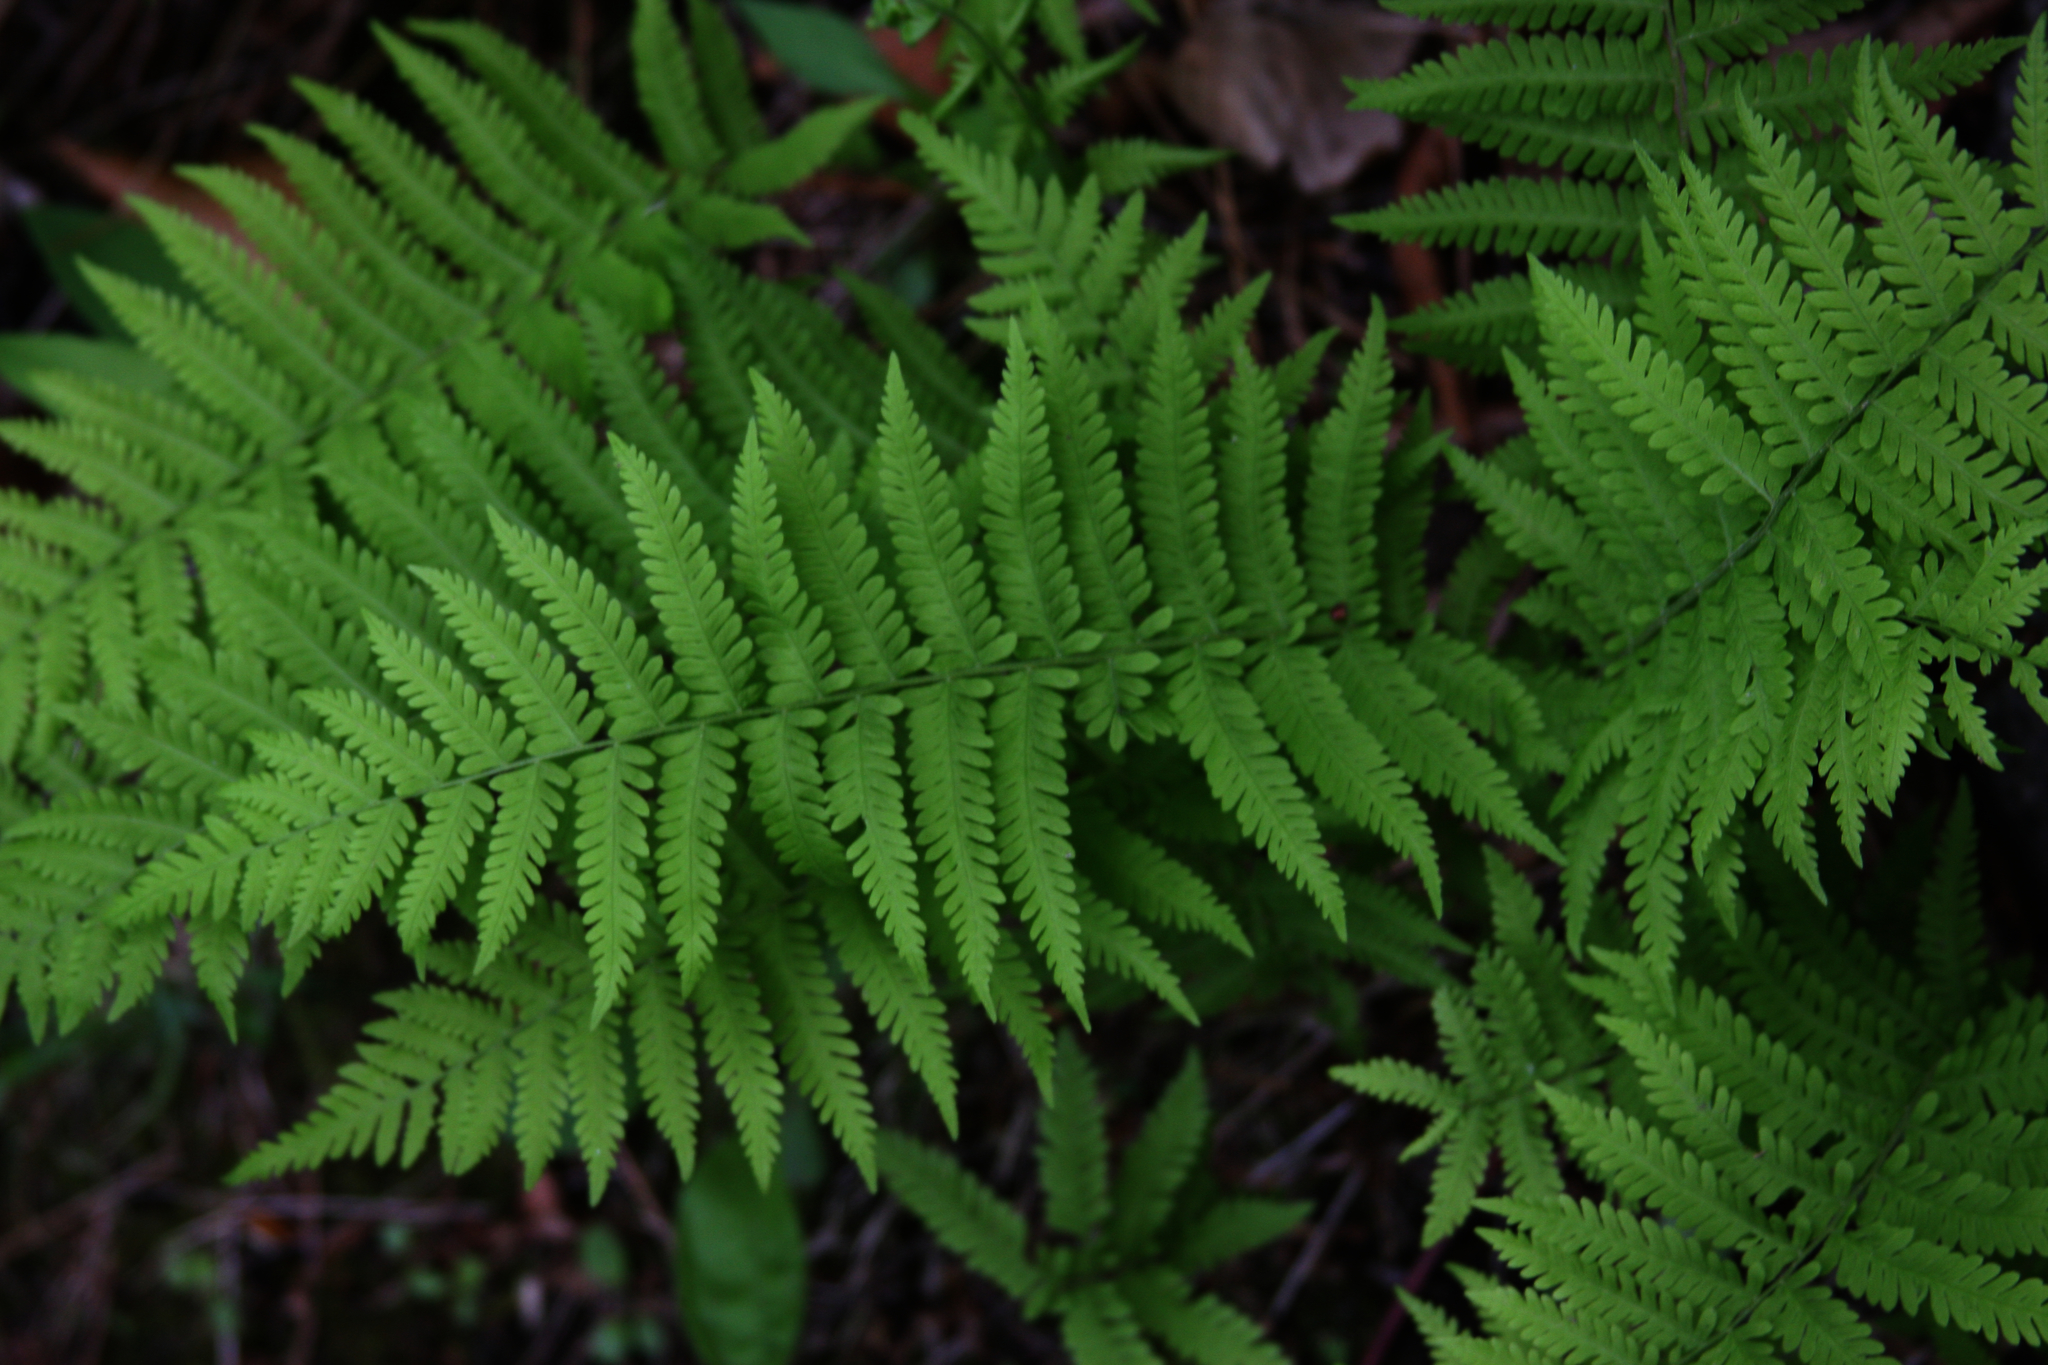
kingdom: Plantae
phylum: Tracheophyta
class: Polypodiopsida
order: Polypodiales
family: Thelypteridaceae
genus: Amauropelta
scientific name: Amauropelta noveboracensis
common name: New york fern
